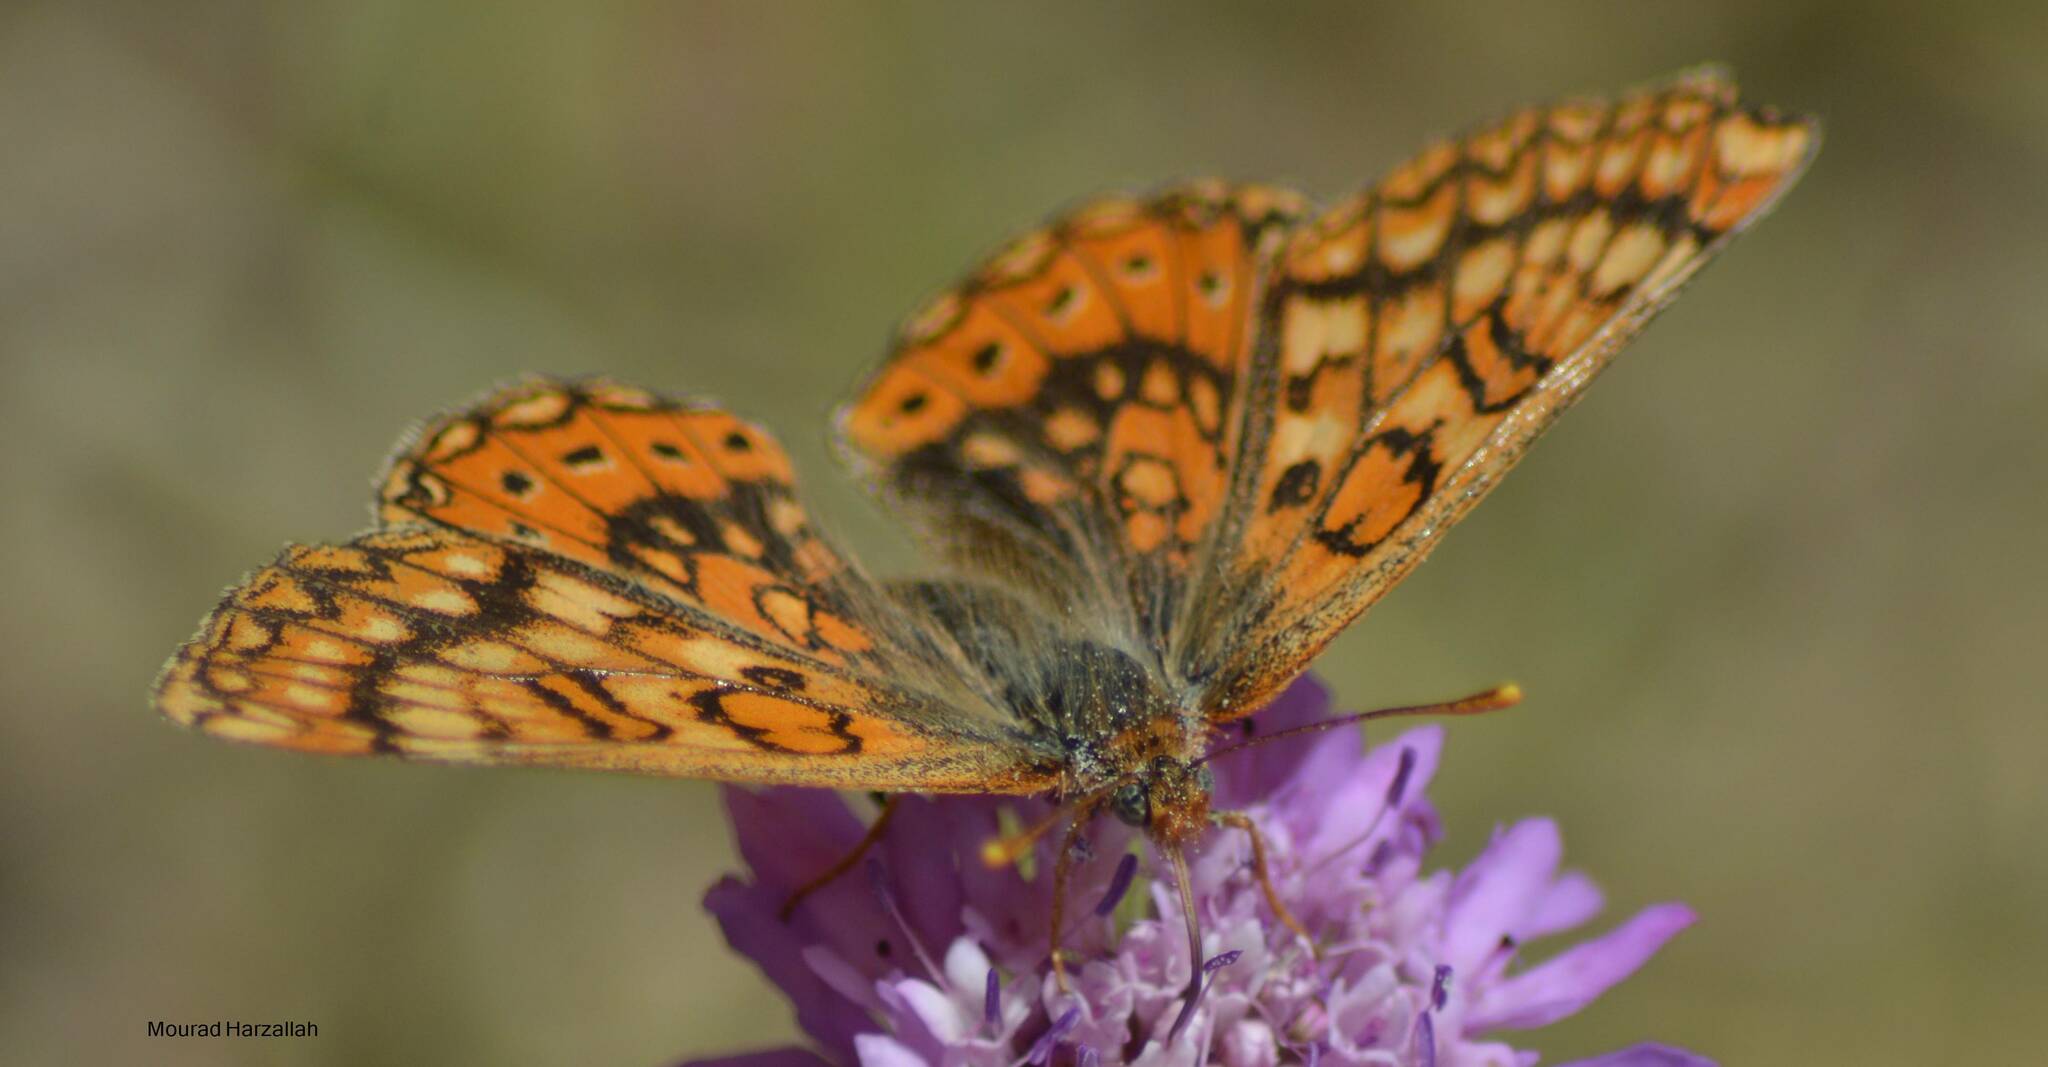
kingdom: Animalia
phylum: Arthropoda
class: Insecta
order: Lepidoptera
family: Nymphalidae
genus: Euphydryas
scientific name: Euphydryas aurinia
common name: Marsh fritillary
